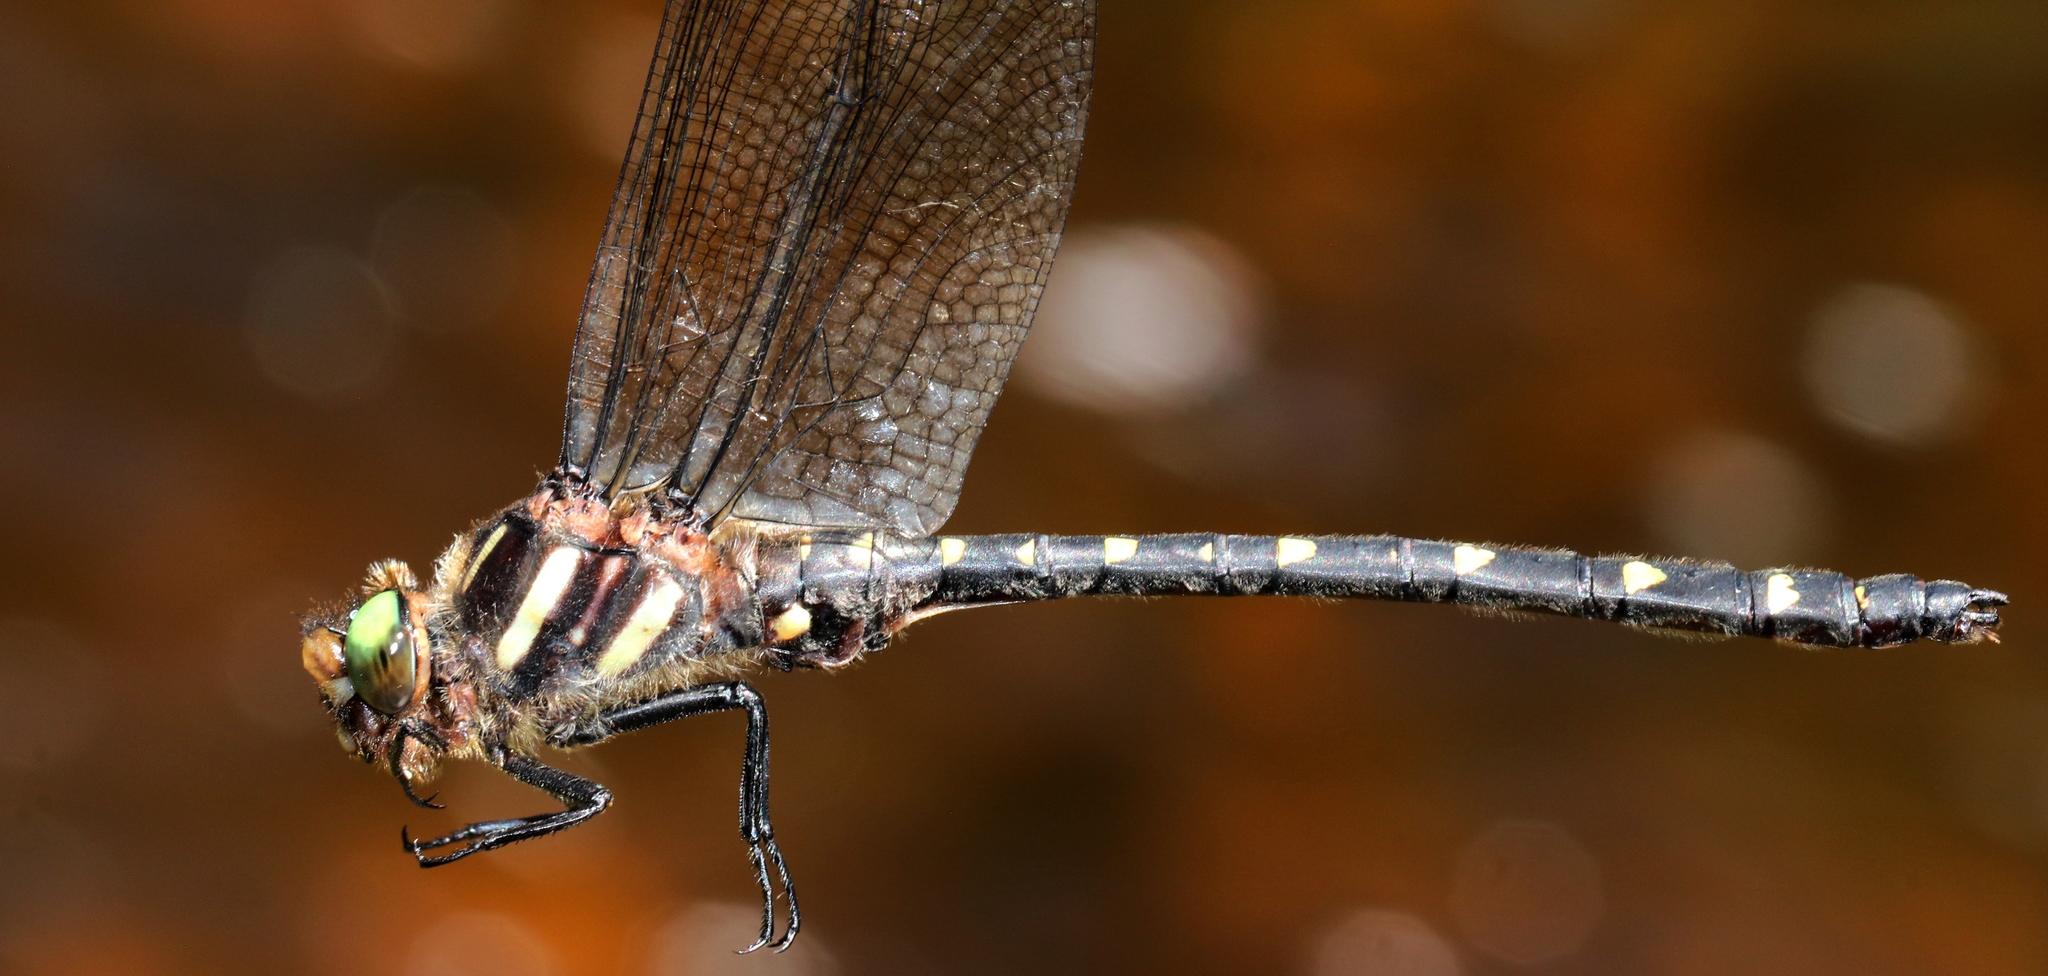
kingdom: Animalia
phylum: Arthropoda
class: Insecta
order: Odonata
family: Cordulegastridae
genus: Cordulegaster
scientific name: Cordulegaster maculata
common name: Twin-spotted spiketail
